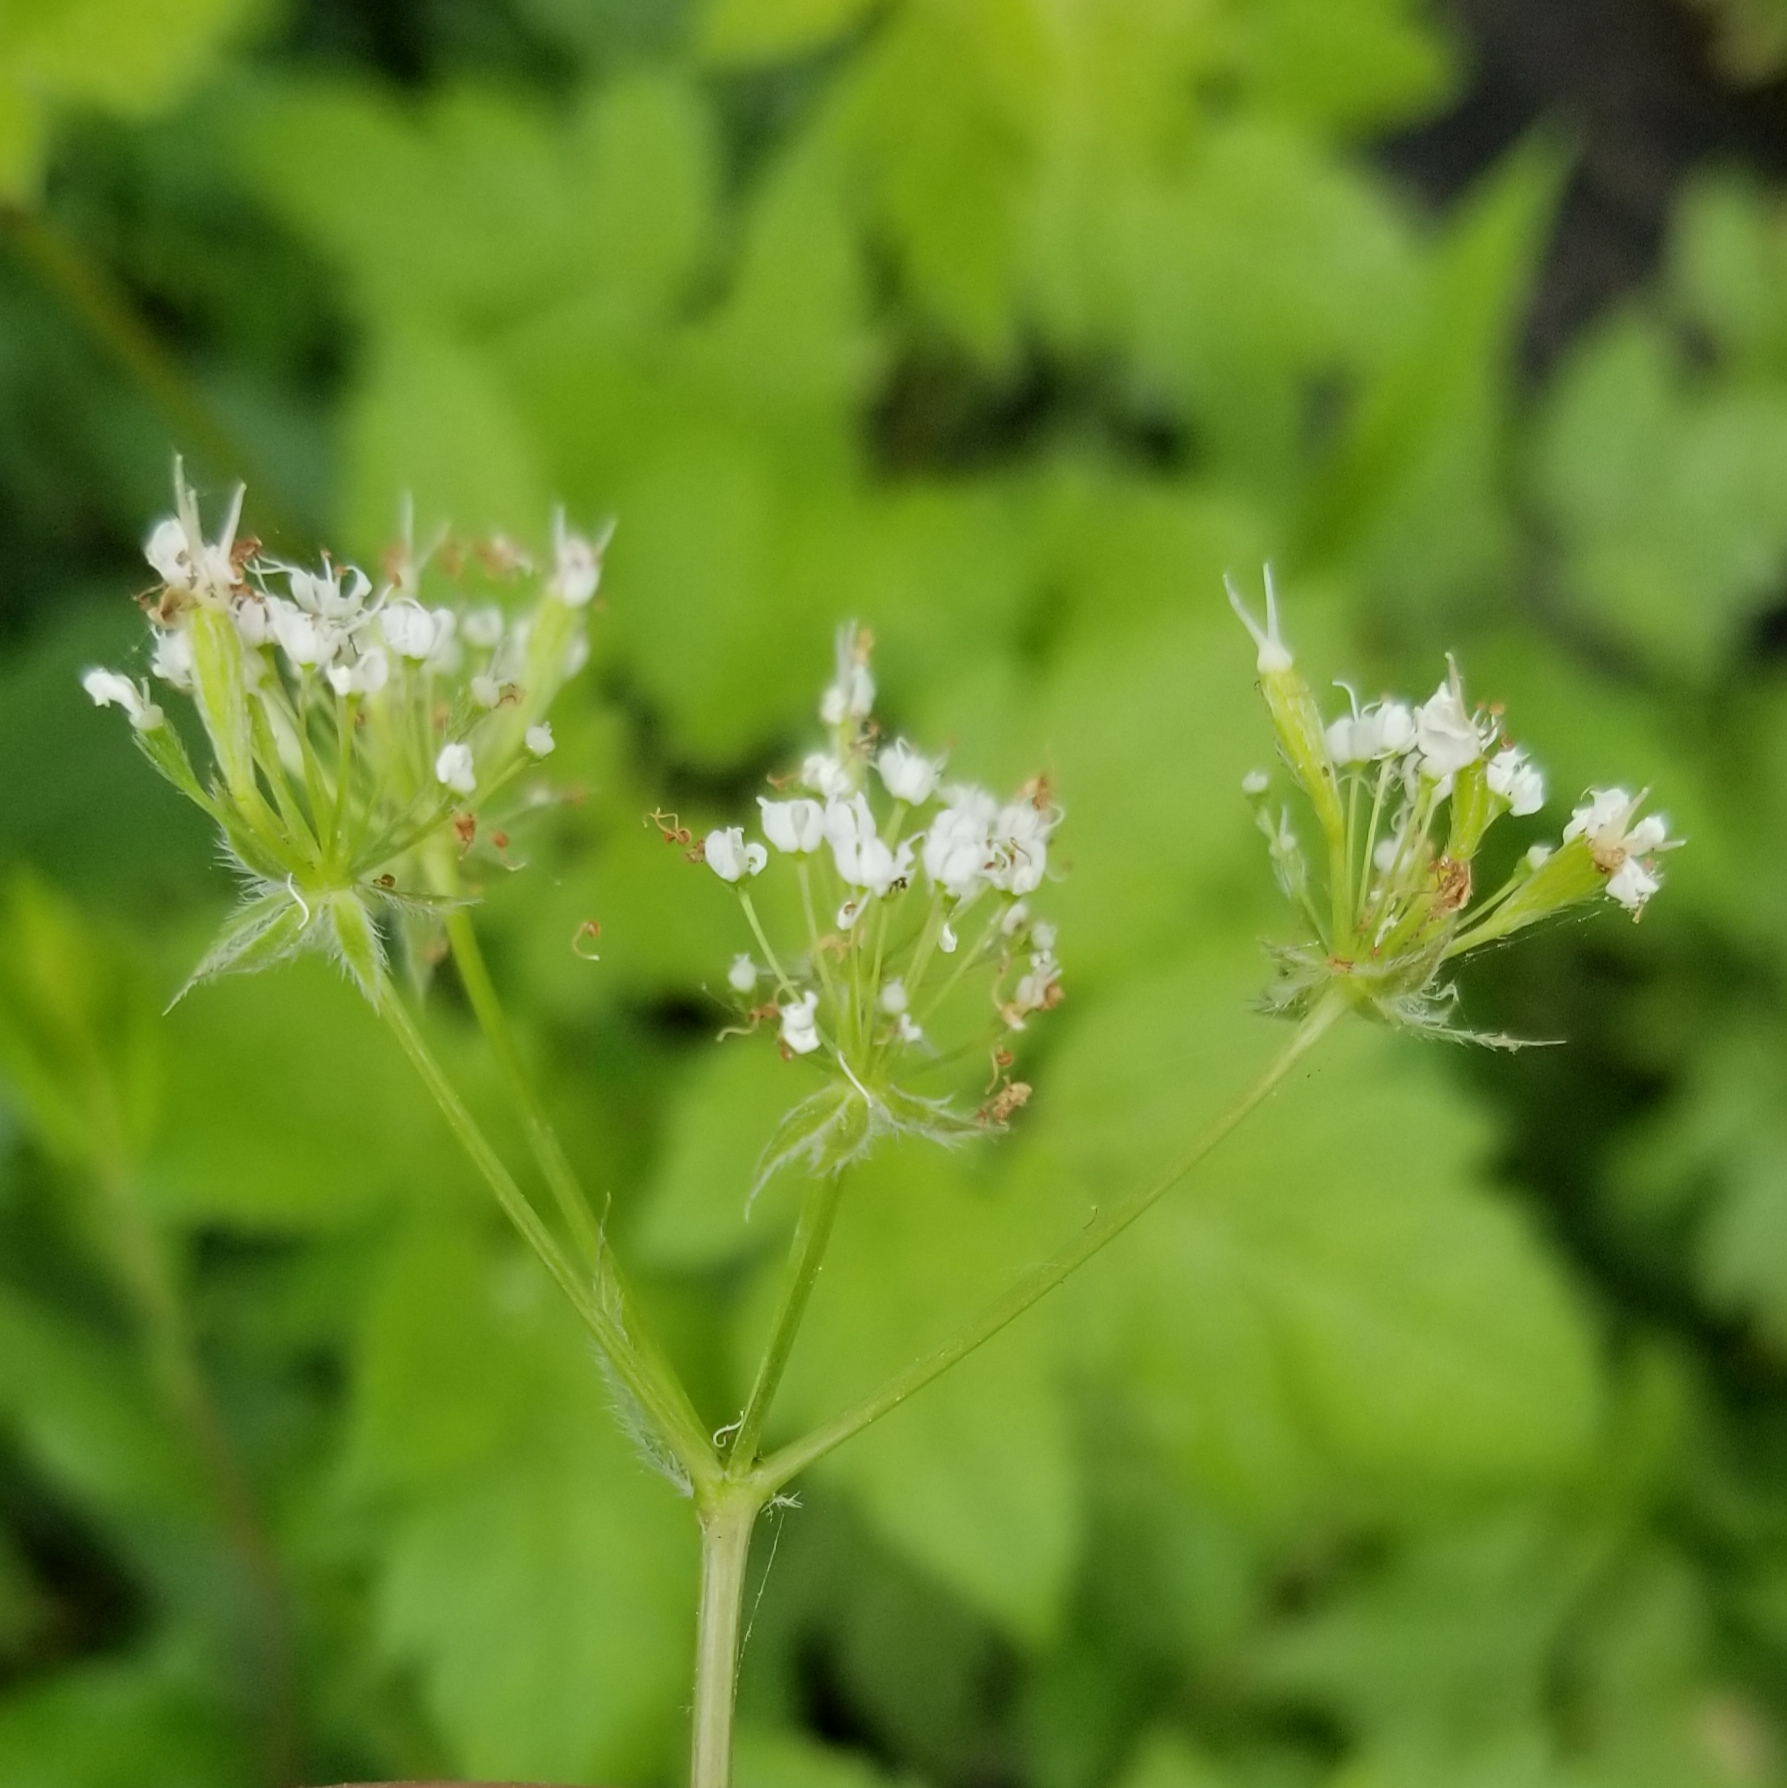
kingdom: Plantae
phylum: Tracheophyta
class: Magnoliopsida
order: Apiales
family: Apiaceae
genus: Osmorhiza
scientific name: Osmorhiza longistylis
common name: Smooth sweet cicely
